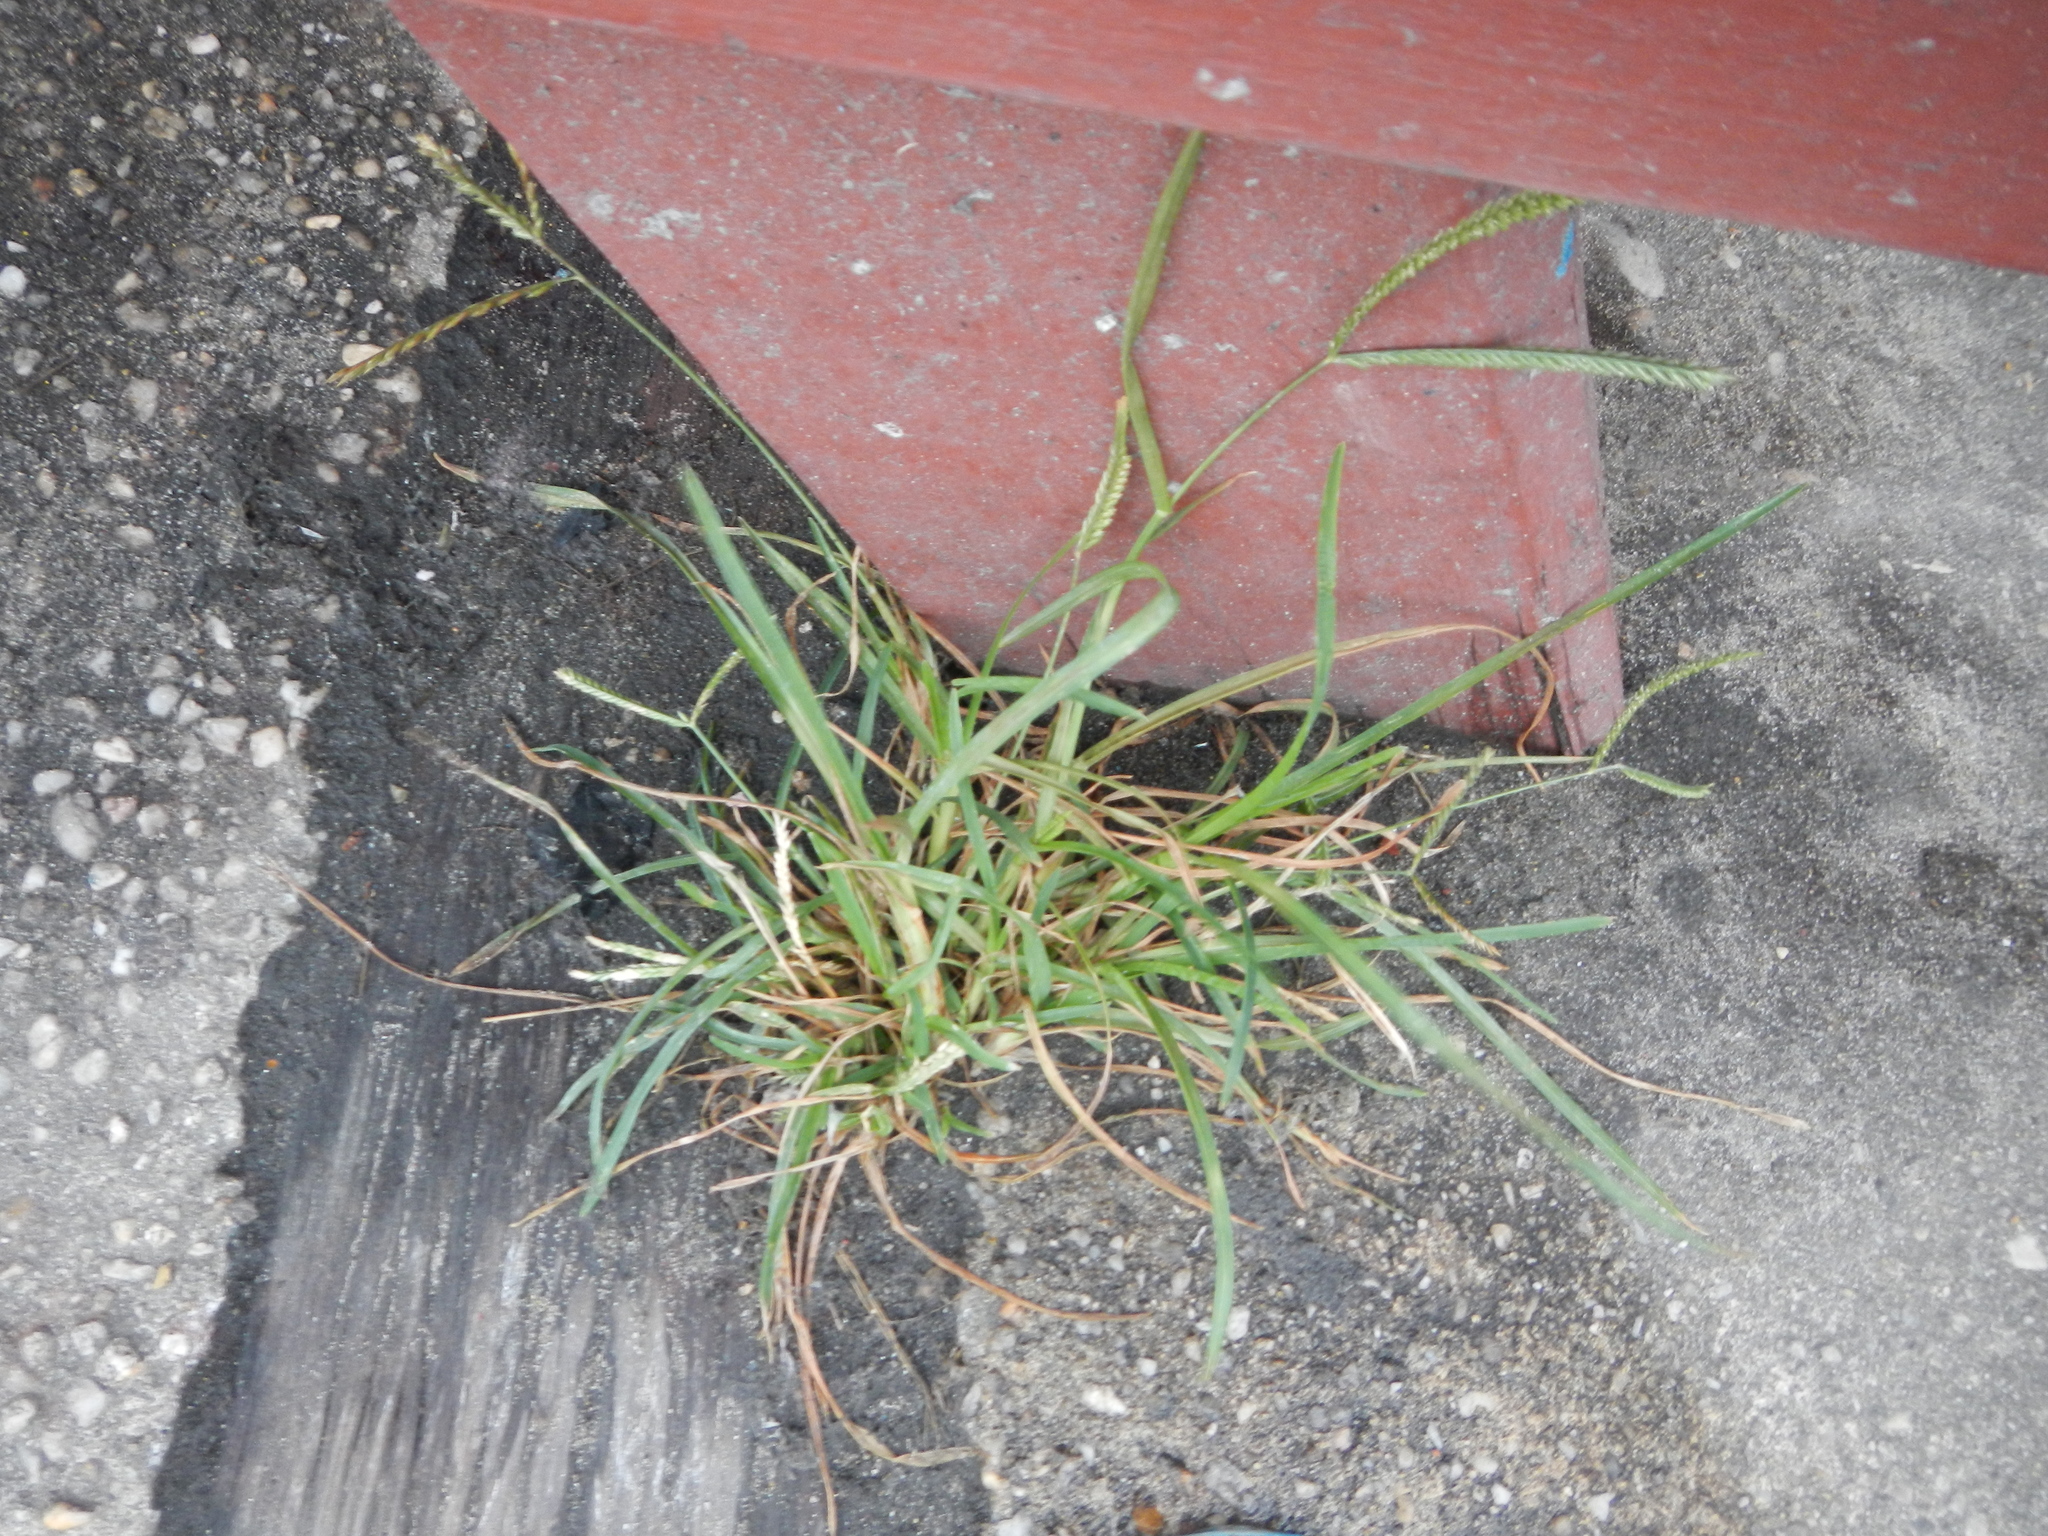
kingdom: Plantae
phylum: Tracheophyta
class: Liliopsida
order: Poales
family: Poaceae
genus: Eleusine
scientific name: Eleusine indica
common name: Yard-grass
